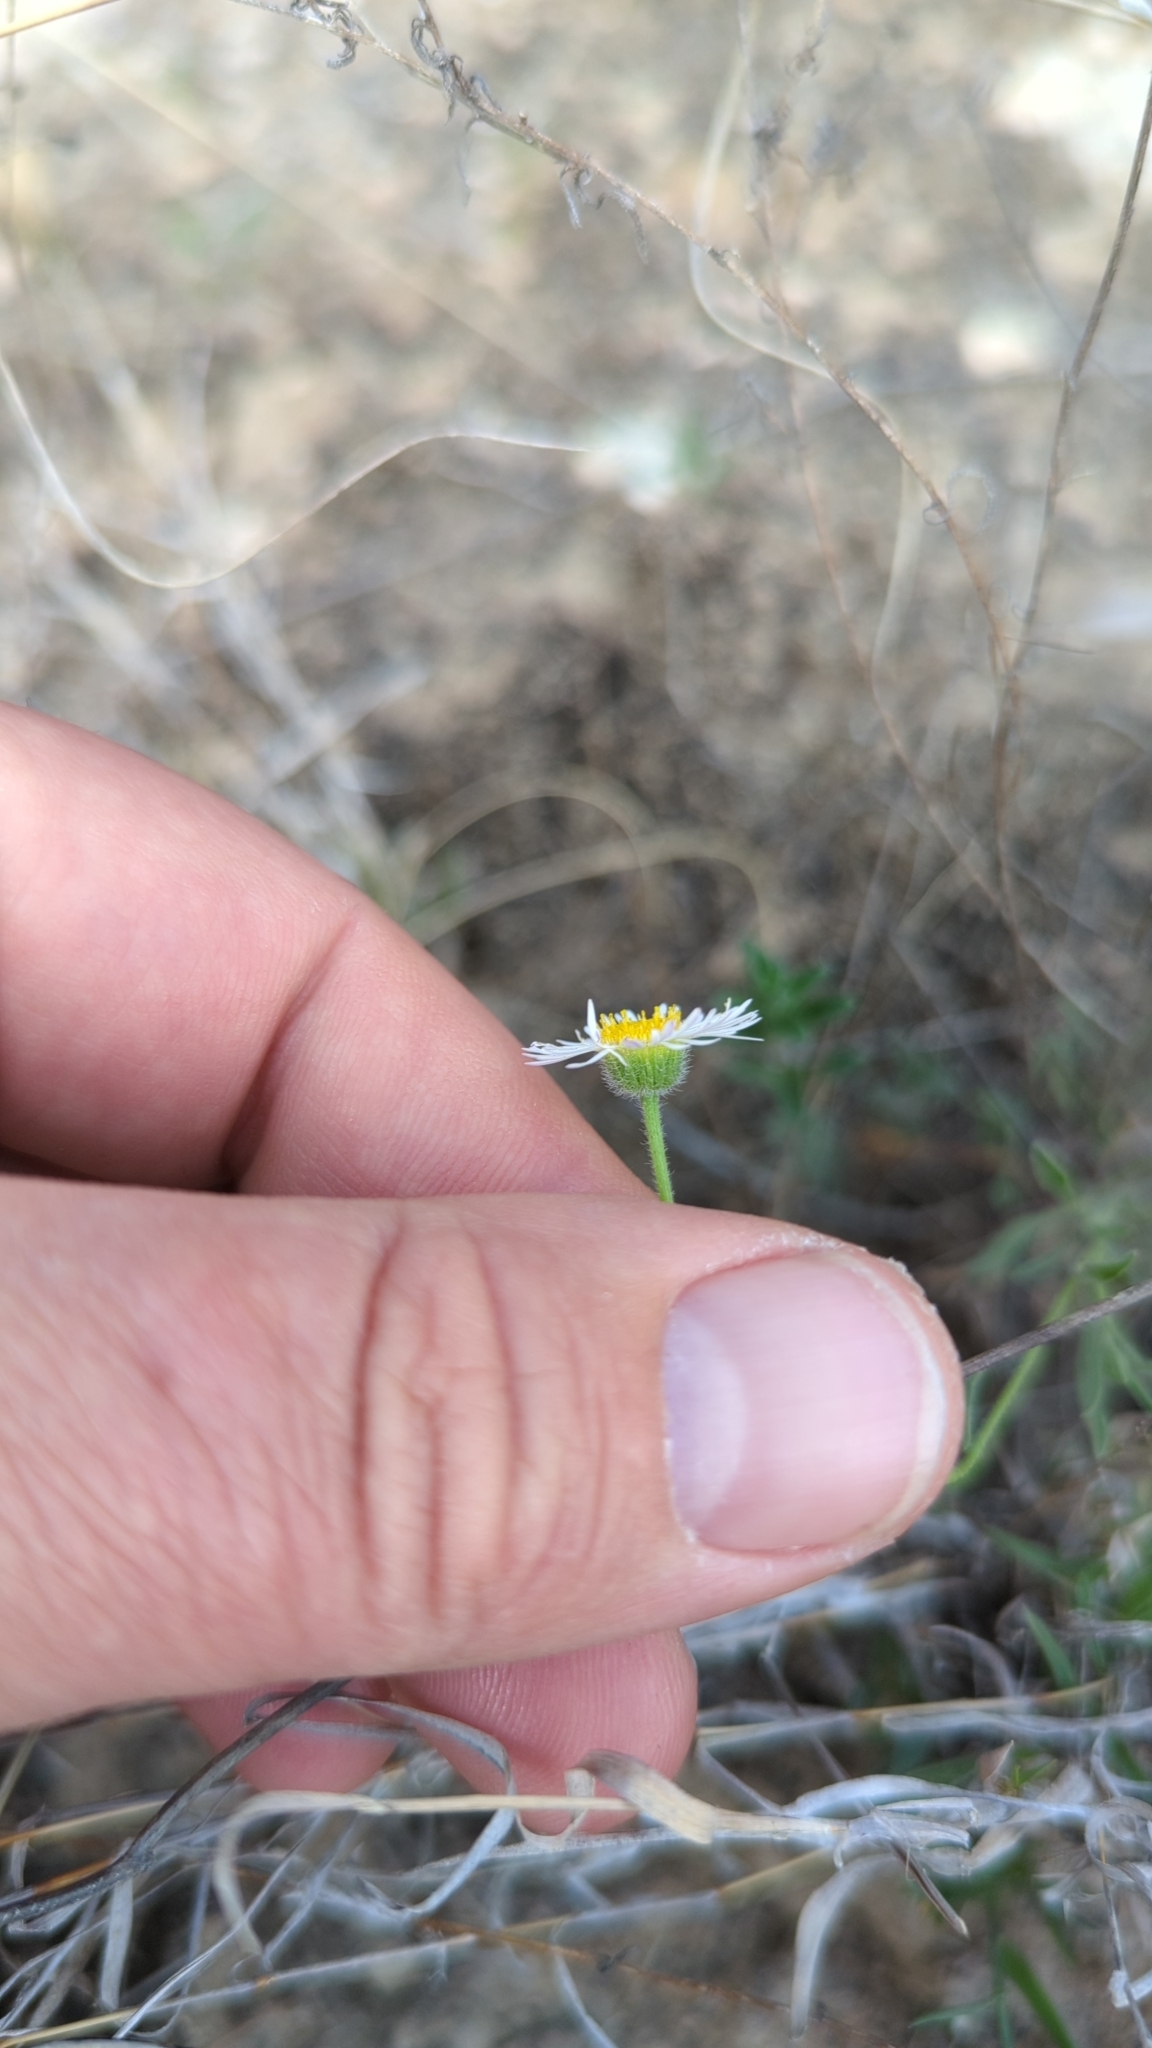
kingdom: Plantae
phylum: Tracheophyta
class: Magnoliopsida
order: Asterales
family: Asteraceae
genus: Erigeron
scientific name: Erigeron modestus
